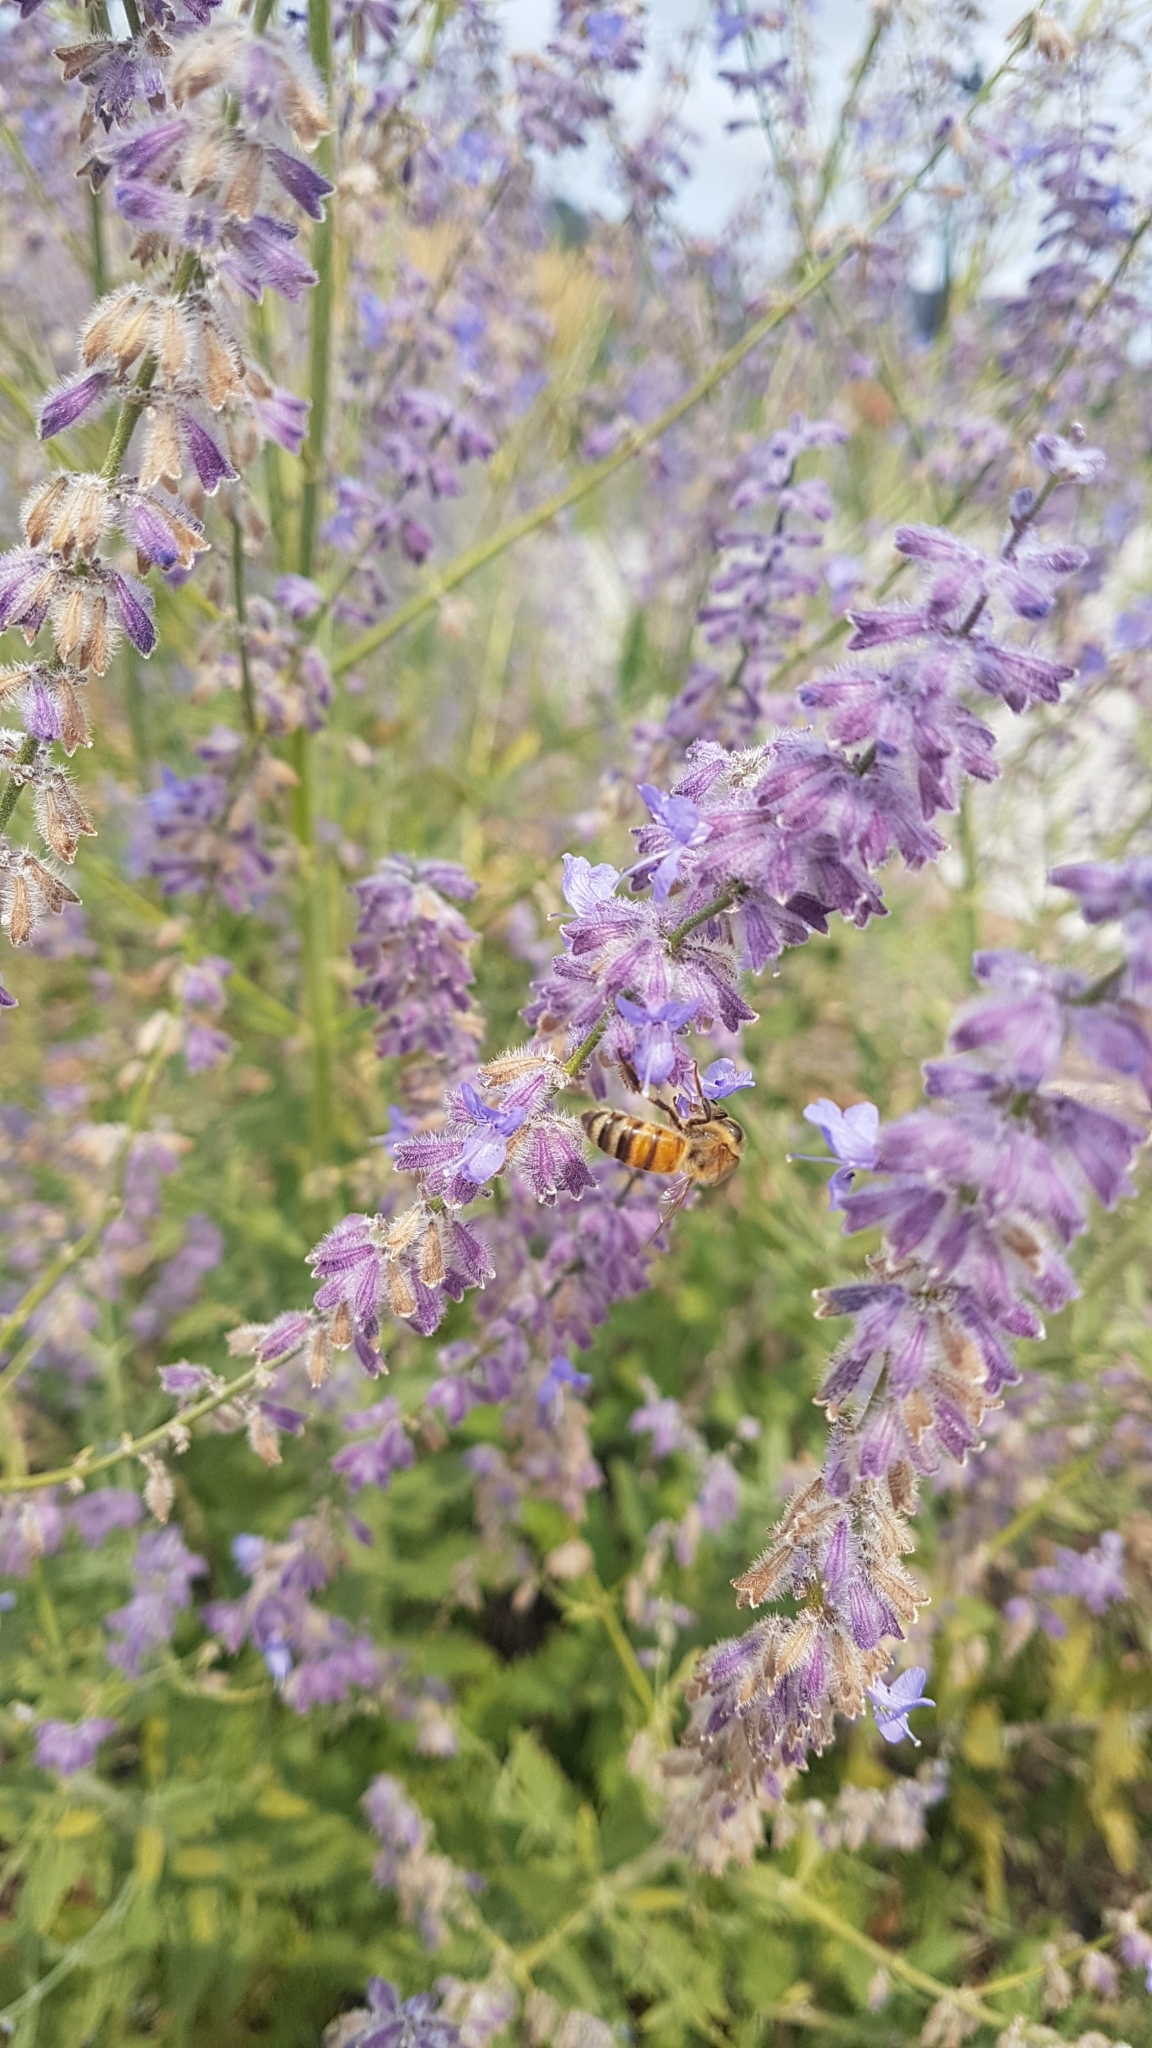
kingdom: Animalia
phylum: Arthropoda
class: Insecta
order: Hymenoptera
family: Apidae
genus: Apis
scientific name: Apis mellifera
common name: Honey bee
